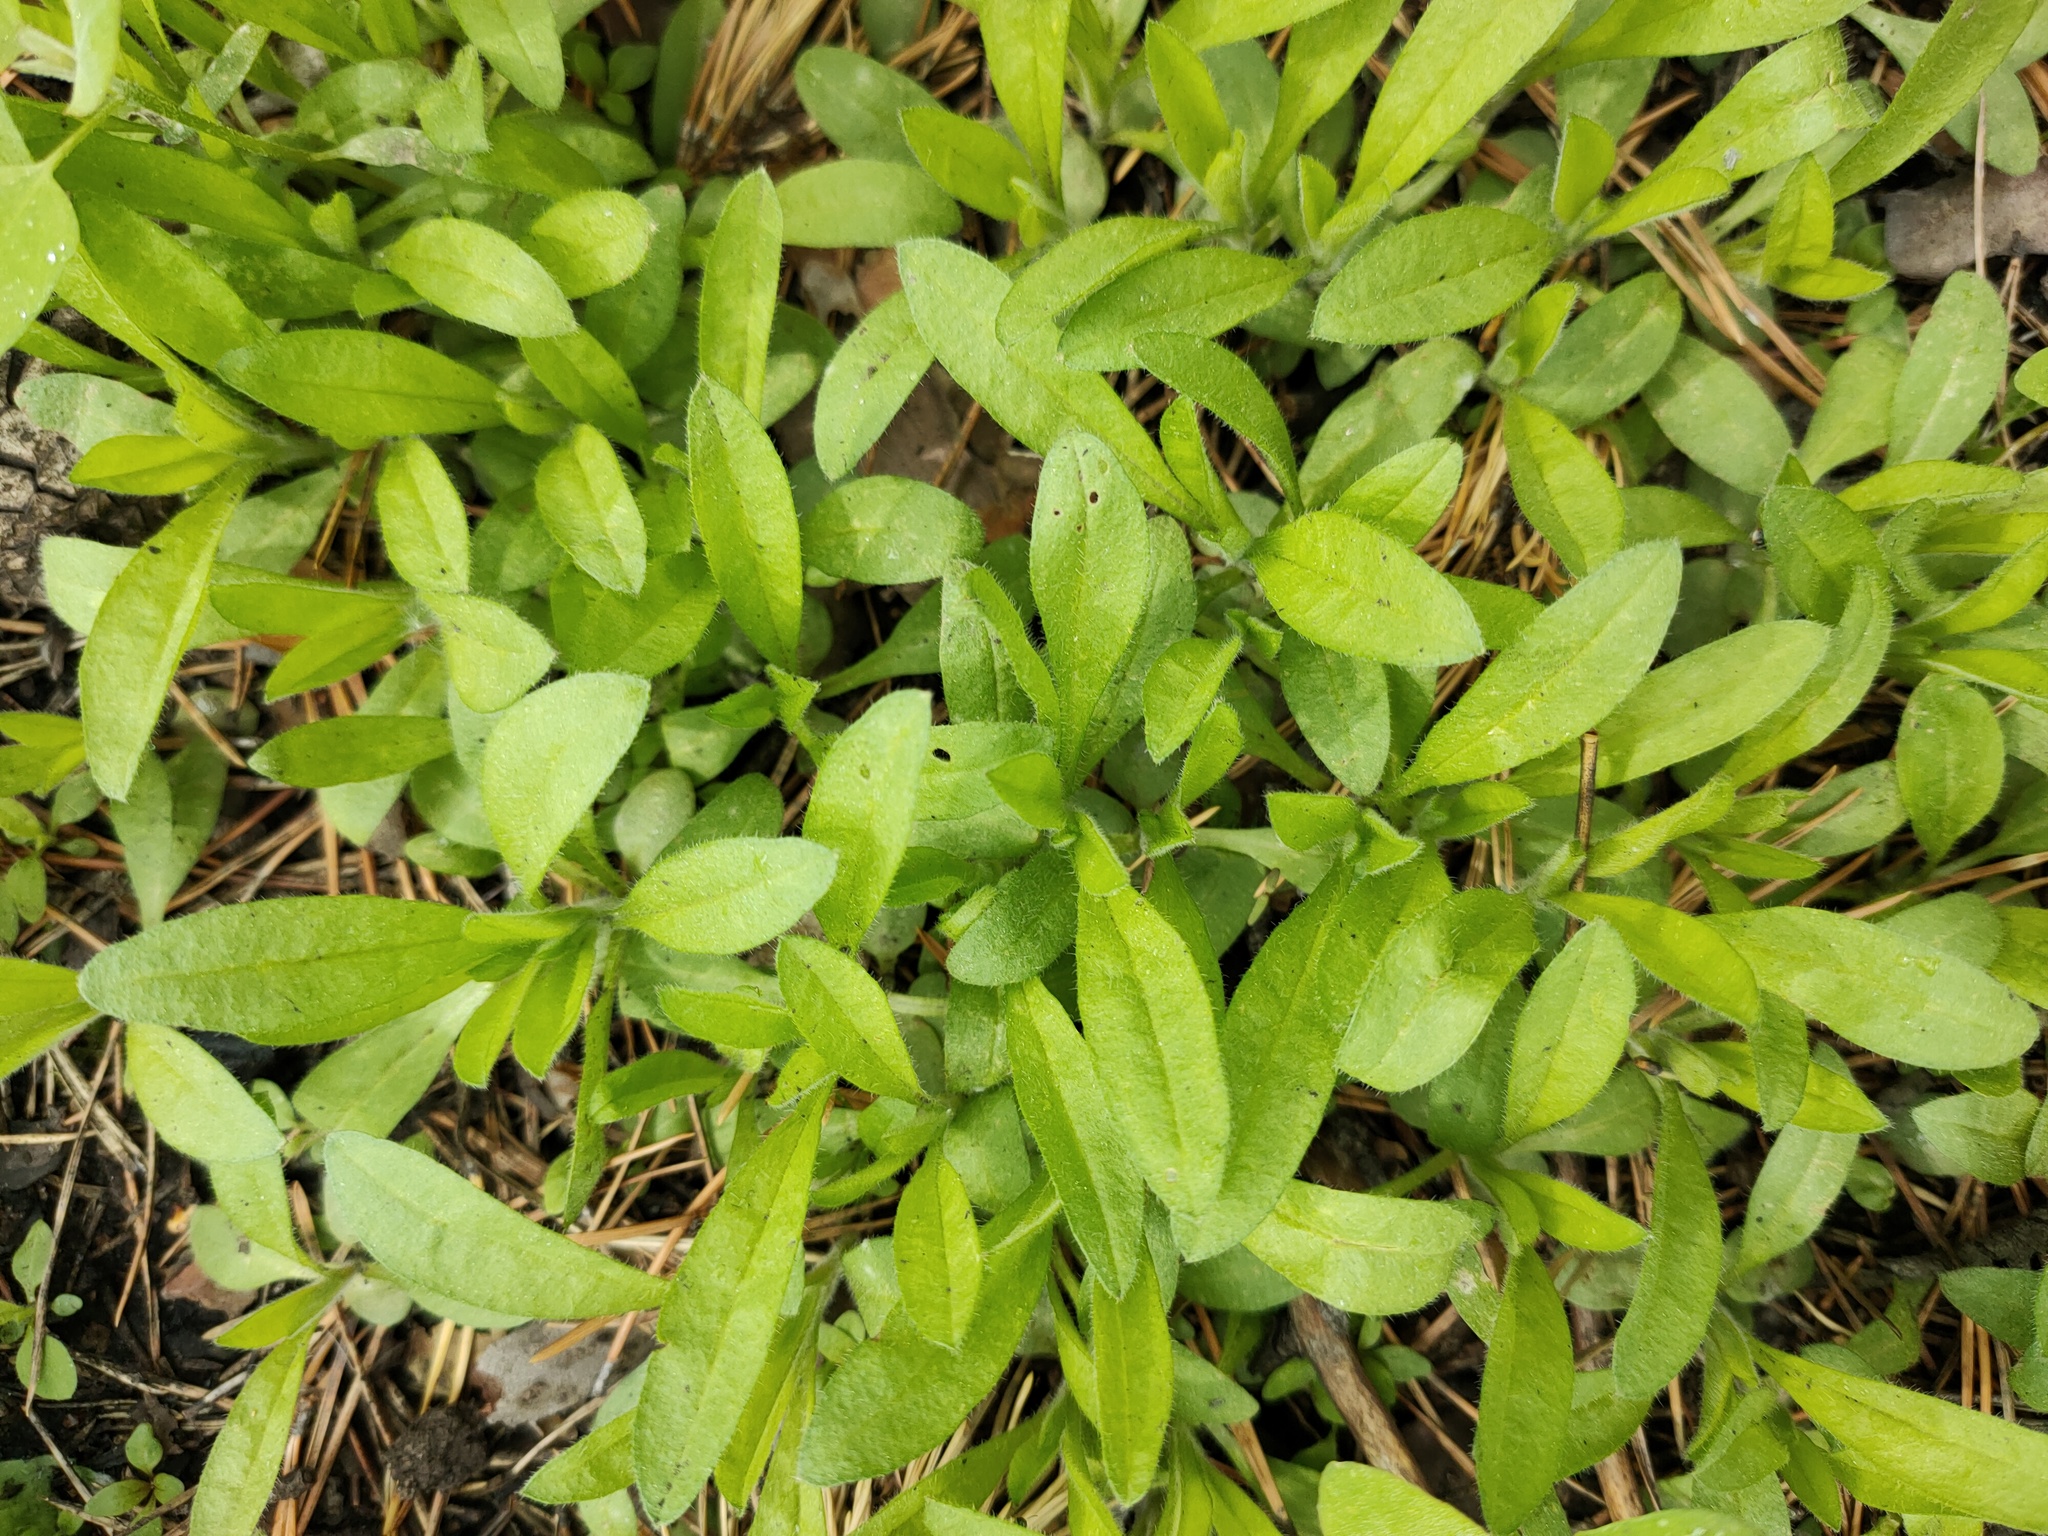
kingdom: Plantae
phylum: Tracheophyta
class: Magnoliopsida
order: Boraginales
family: Boraginaceae
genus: Asperugo
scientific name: Asperugo procumbens
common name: Madwort
